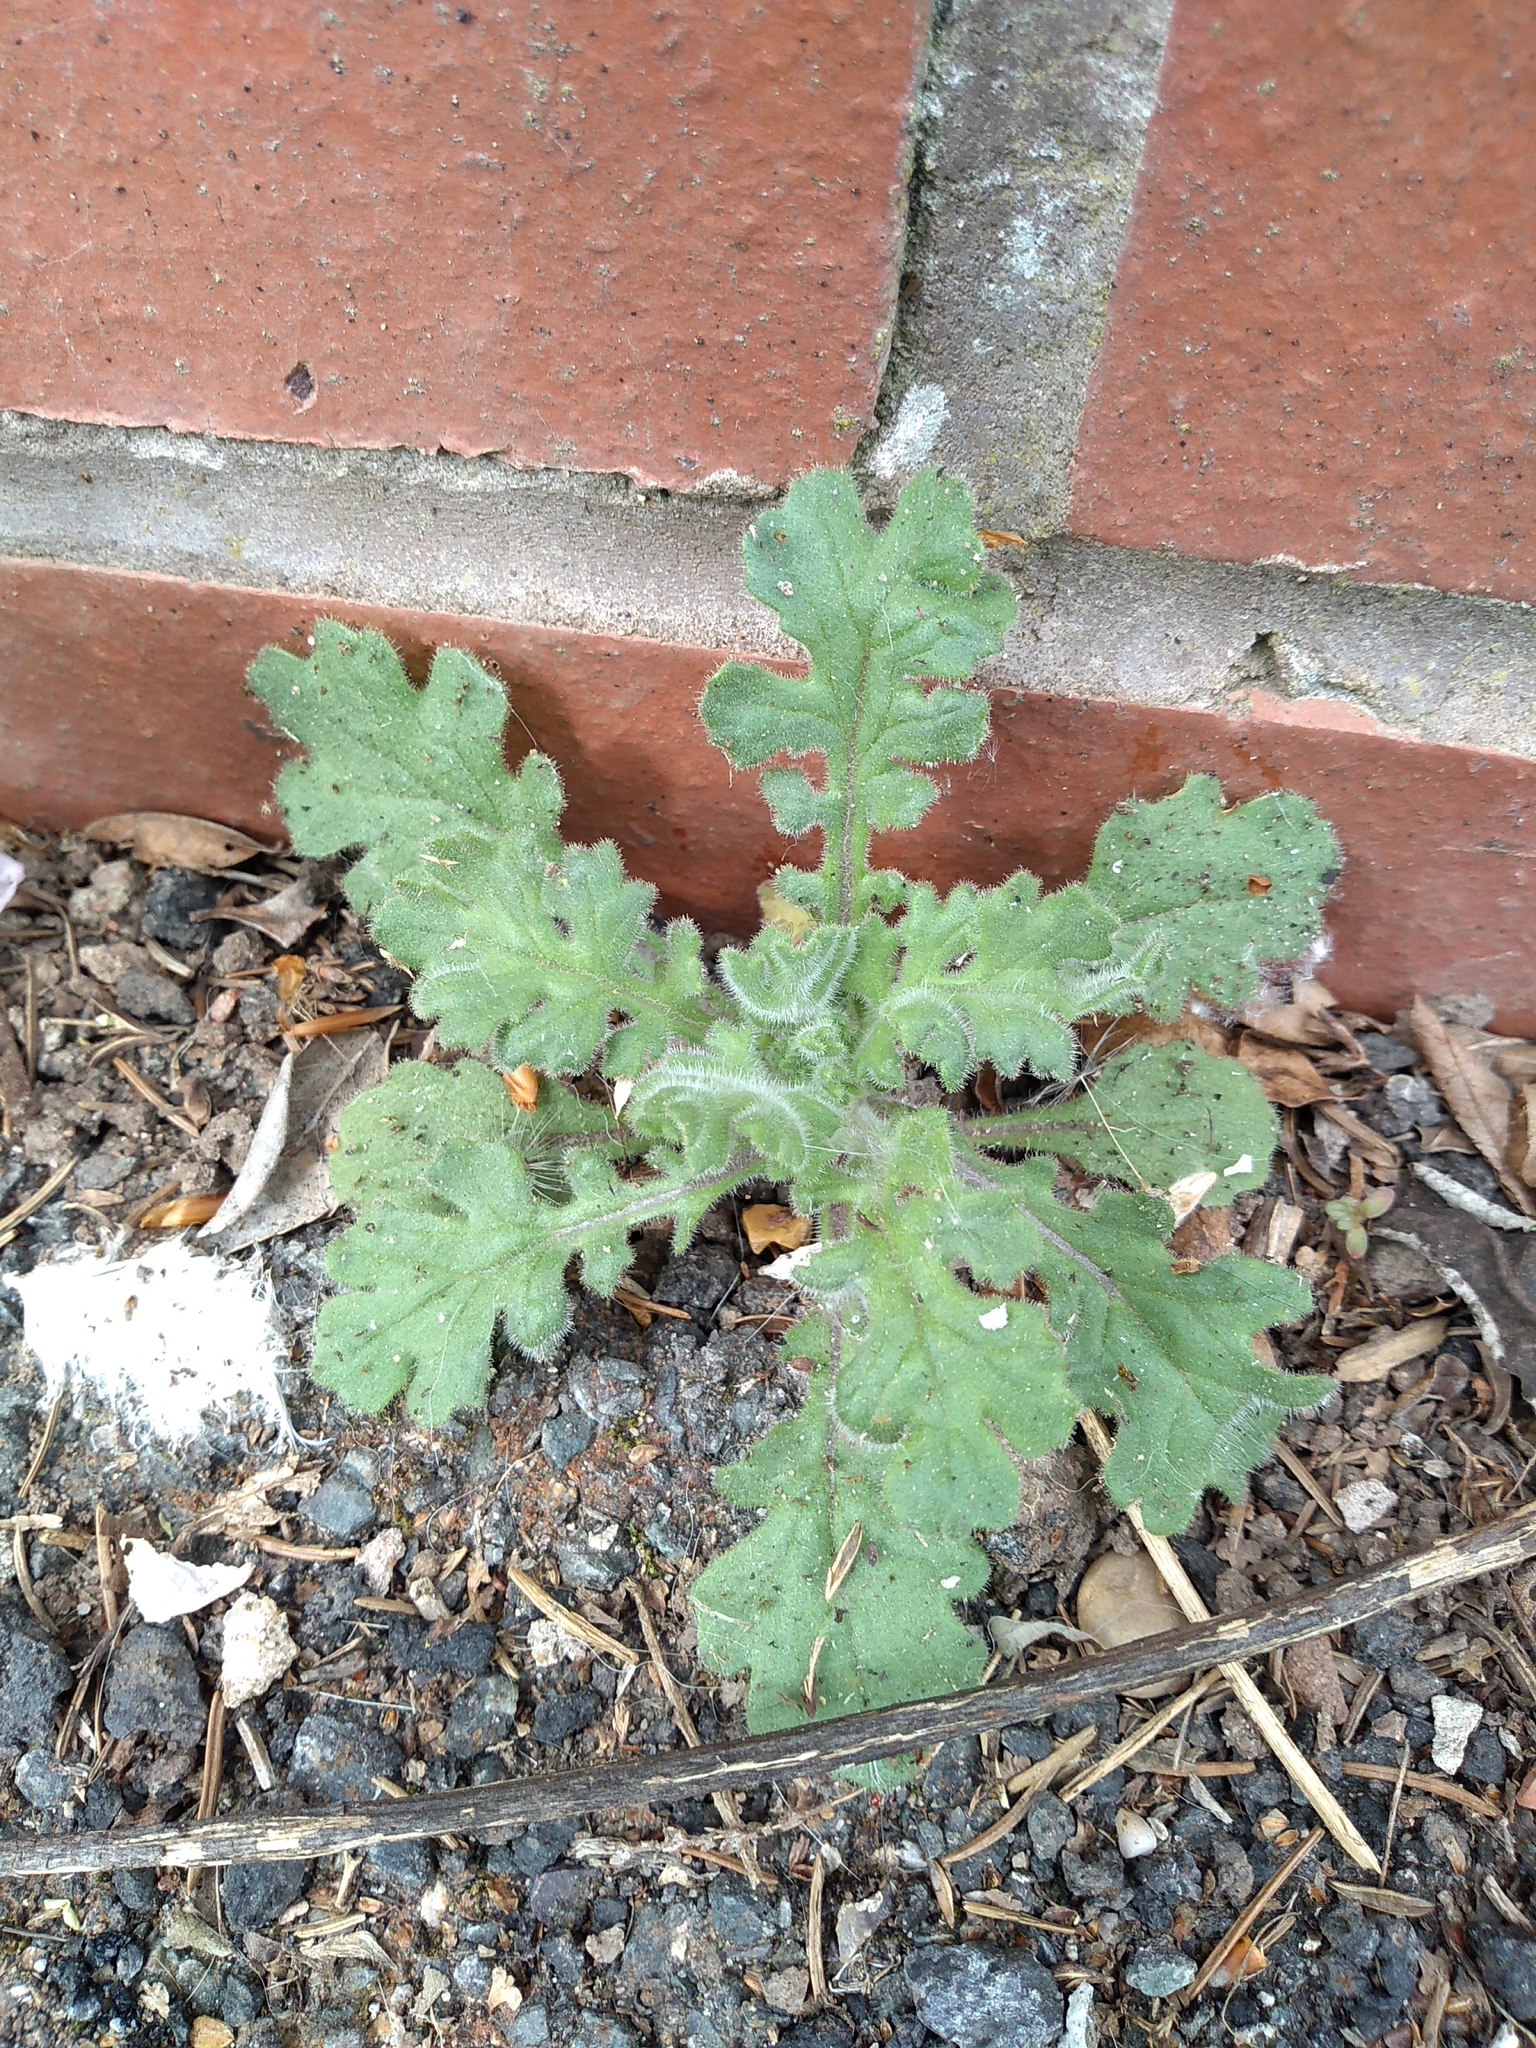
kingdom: Plantae
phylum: Tracheophyta
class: Magnoliopsida
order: Asterales
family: Asteraceae
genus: Senecio
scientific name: Senecio viscosus
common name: Sticky groundsel
